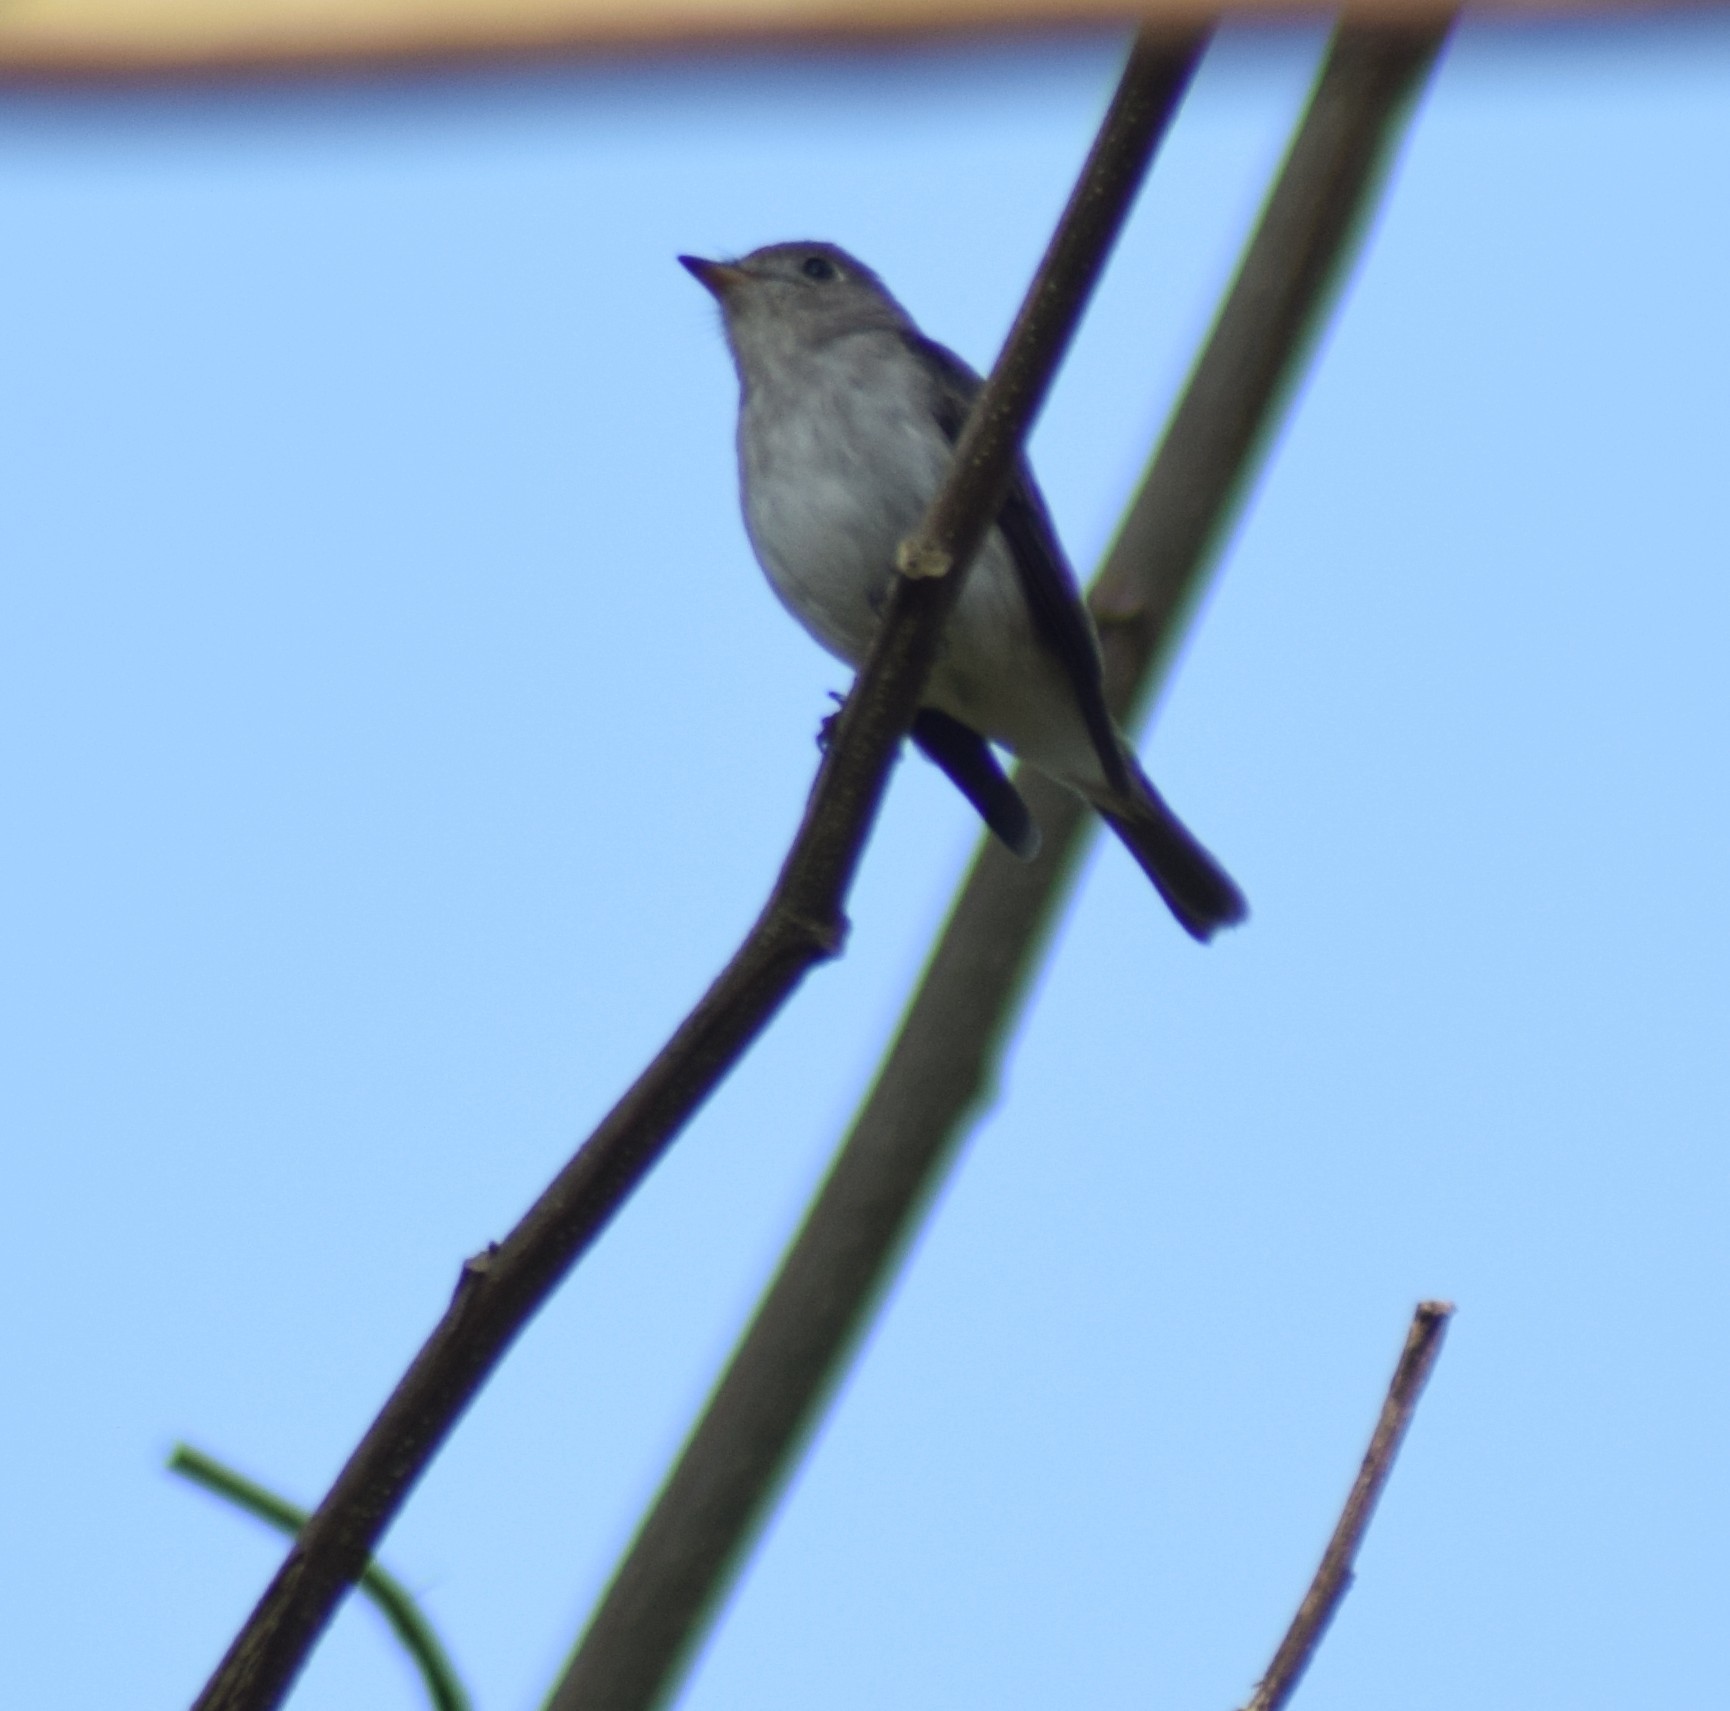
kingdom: Animalia
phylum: Chordata
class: Aves
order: Passeriformes
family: Muscicapidae
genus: Muscicapa
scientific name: Muscicapa latirostris
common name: Asian brown flycatcher
